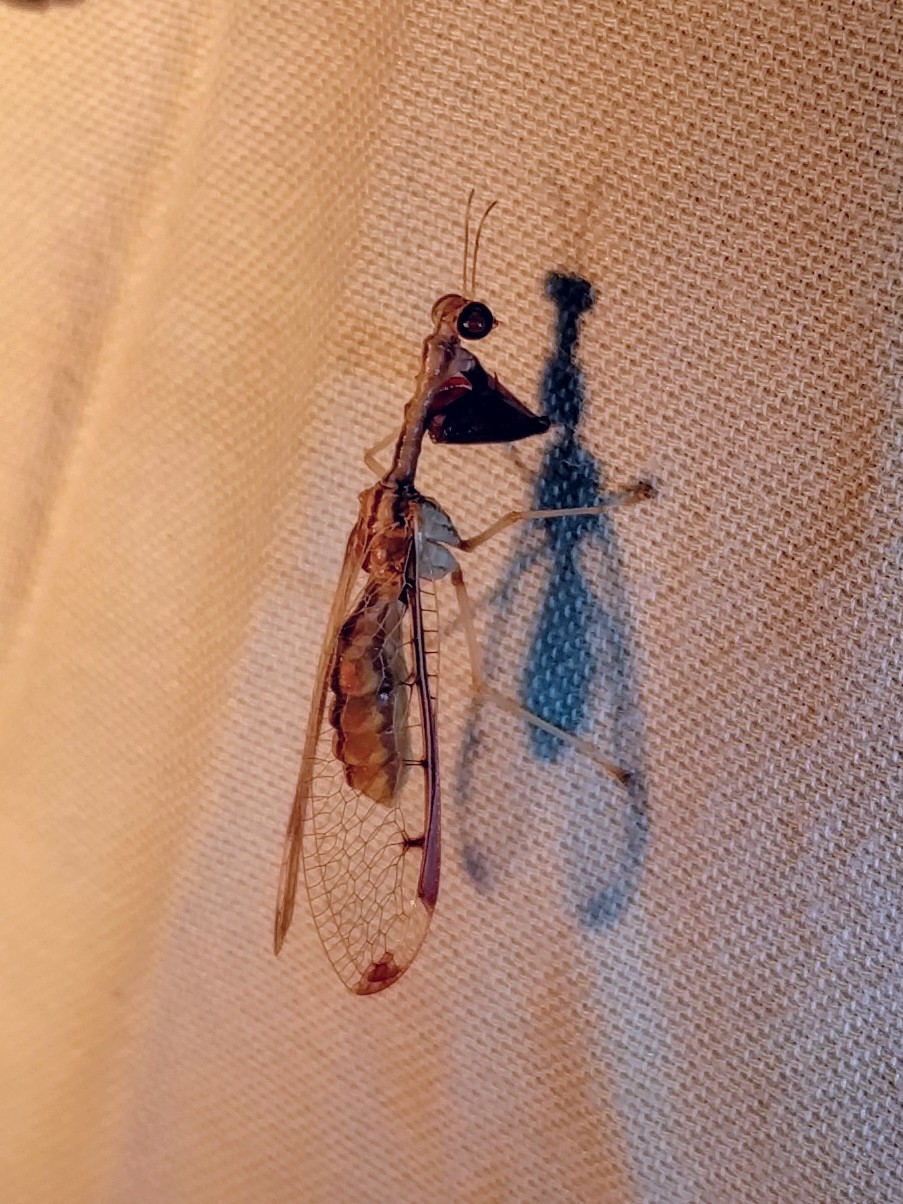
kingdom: Animalia
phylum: Arthropoda
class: Insecta
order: Neuroptera
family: Mantispidae
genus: Dicromantispa
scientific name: Dicromantispa interrupta
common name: Four-spotted mantidfly
